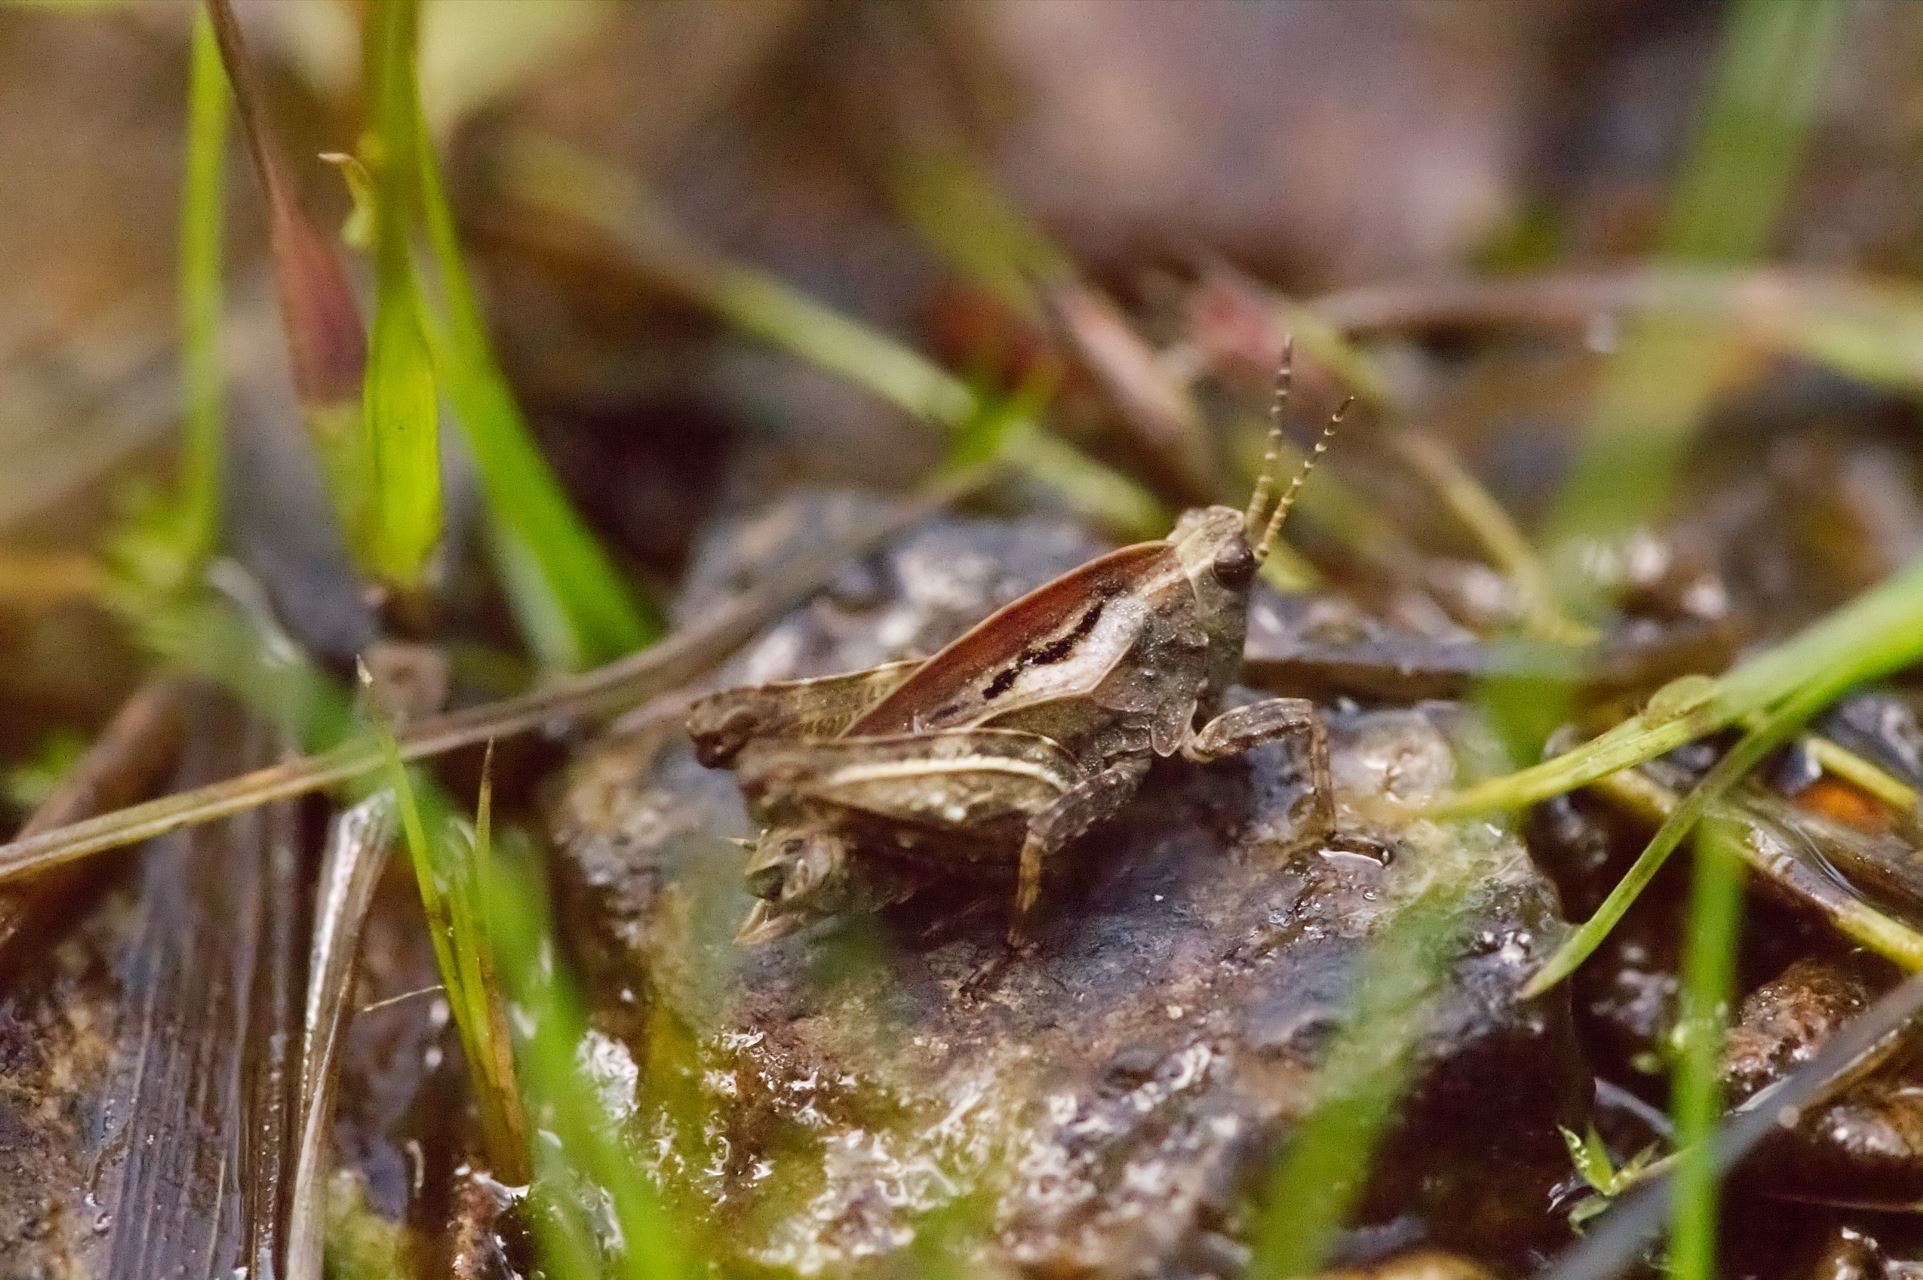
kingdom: Animalia
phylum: Arthropoda
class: Insecta
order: Orthoptera
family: Tetrigidae
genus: Tetrix
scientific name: Tetrix undulata
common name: Common groundhopper
